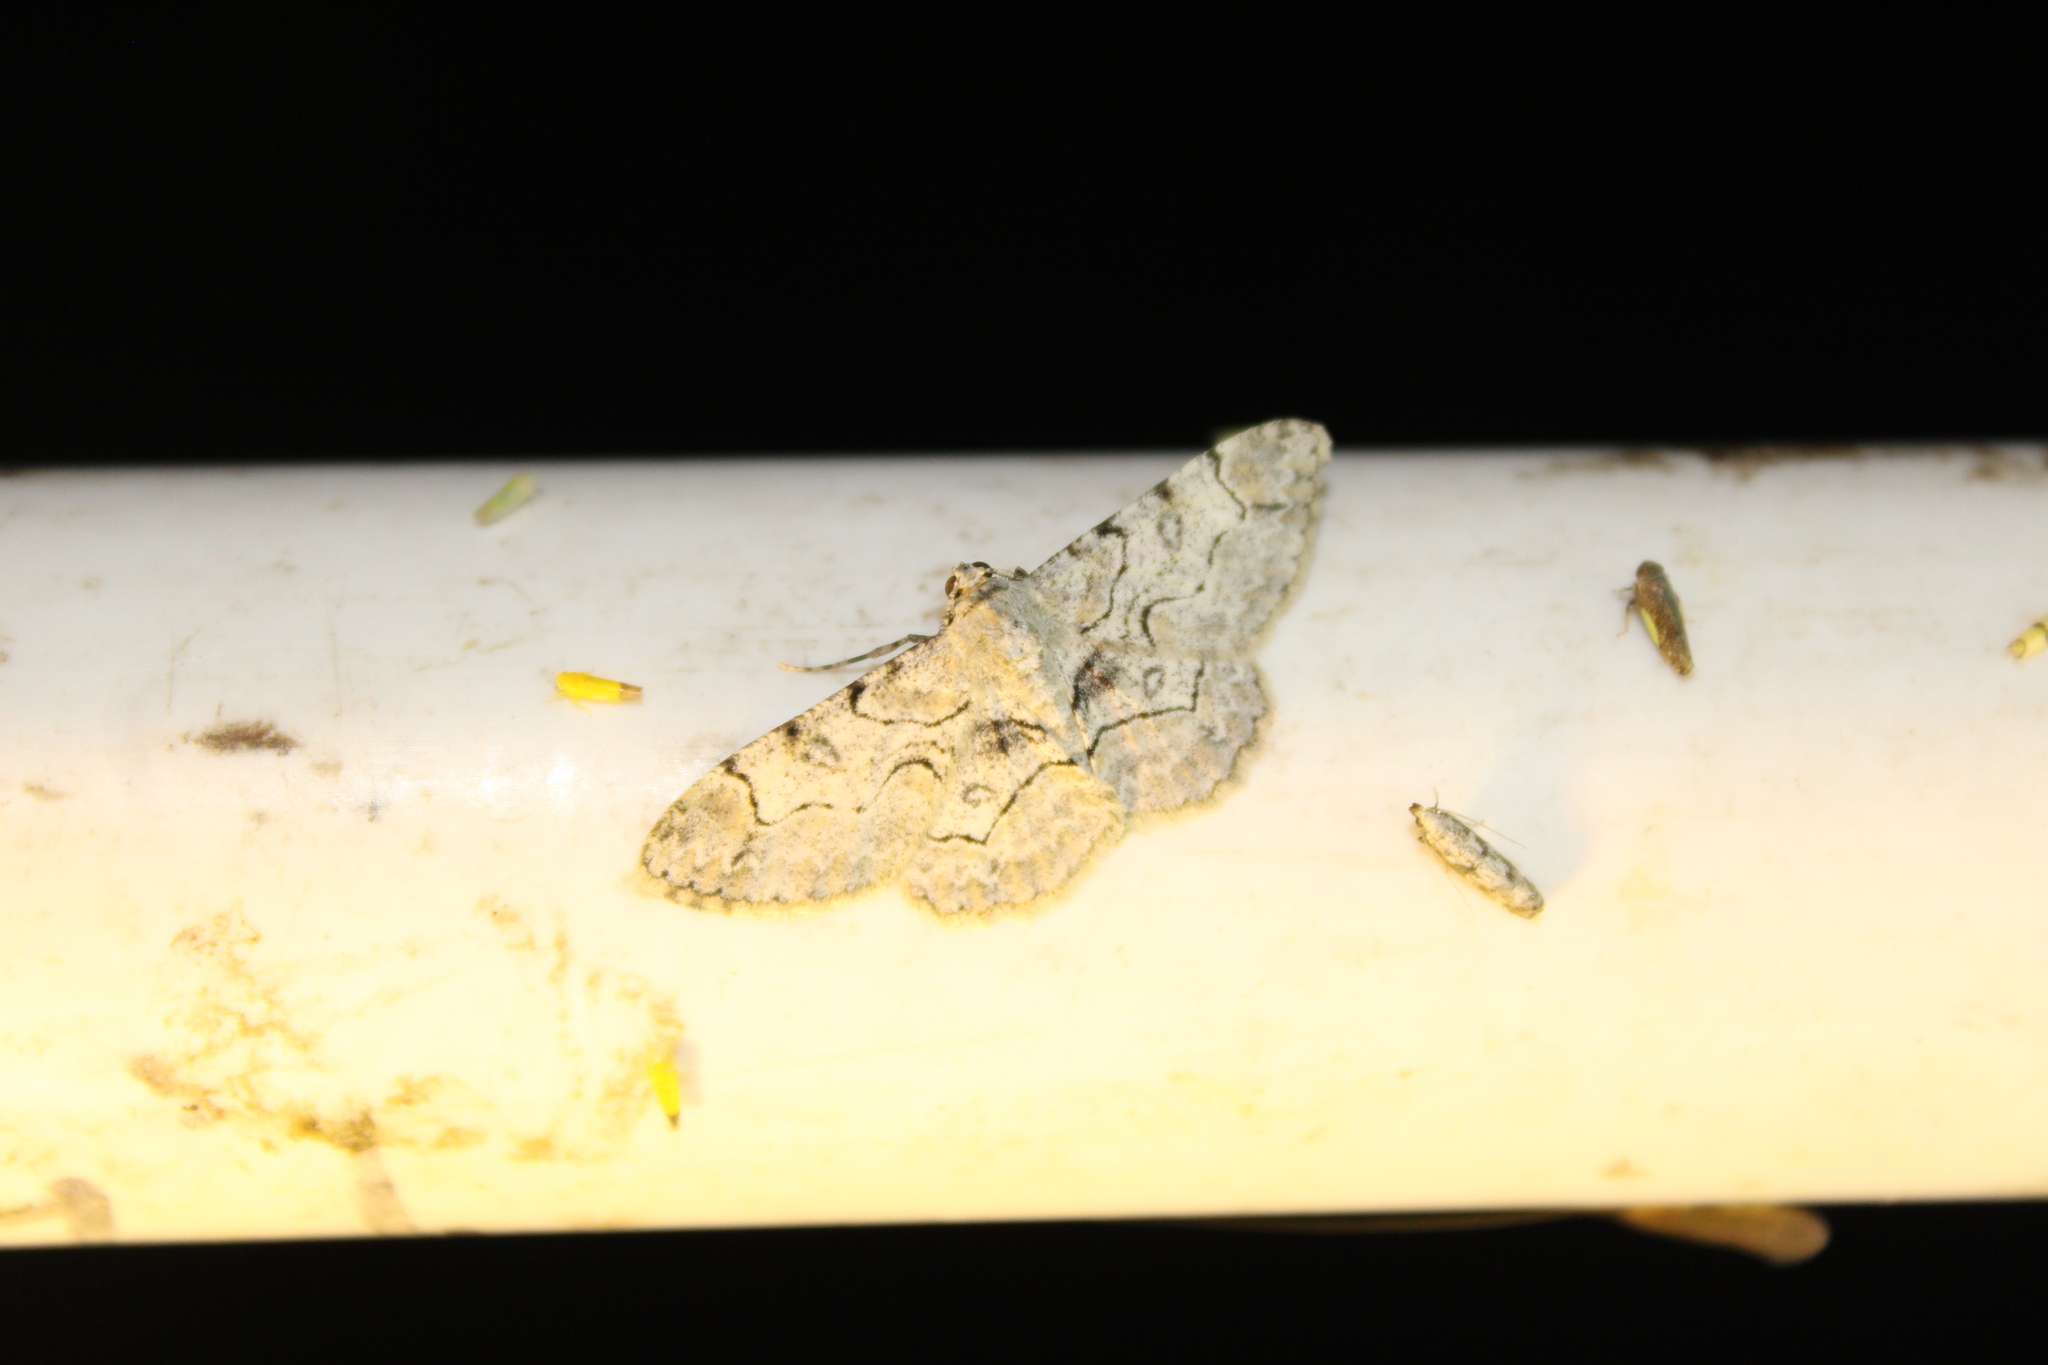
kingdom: Animalia
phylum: Arthropoda
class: Insecta
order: Lepidoptera
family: Geometridae
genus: Iridopsis
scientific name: Iridopsis larvaria
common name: Bent-line gray
